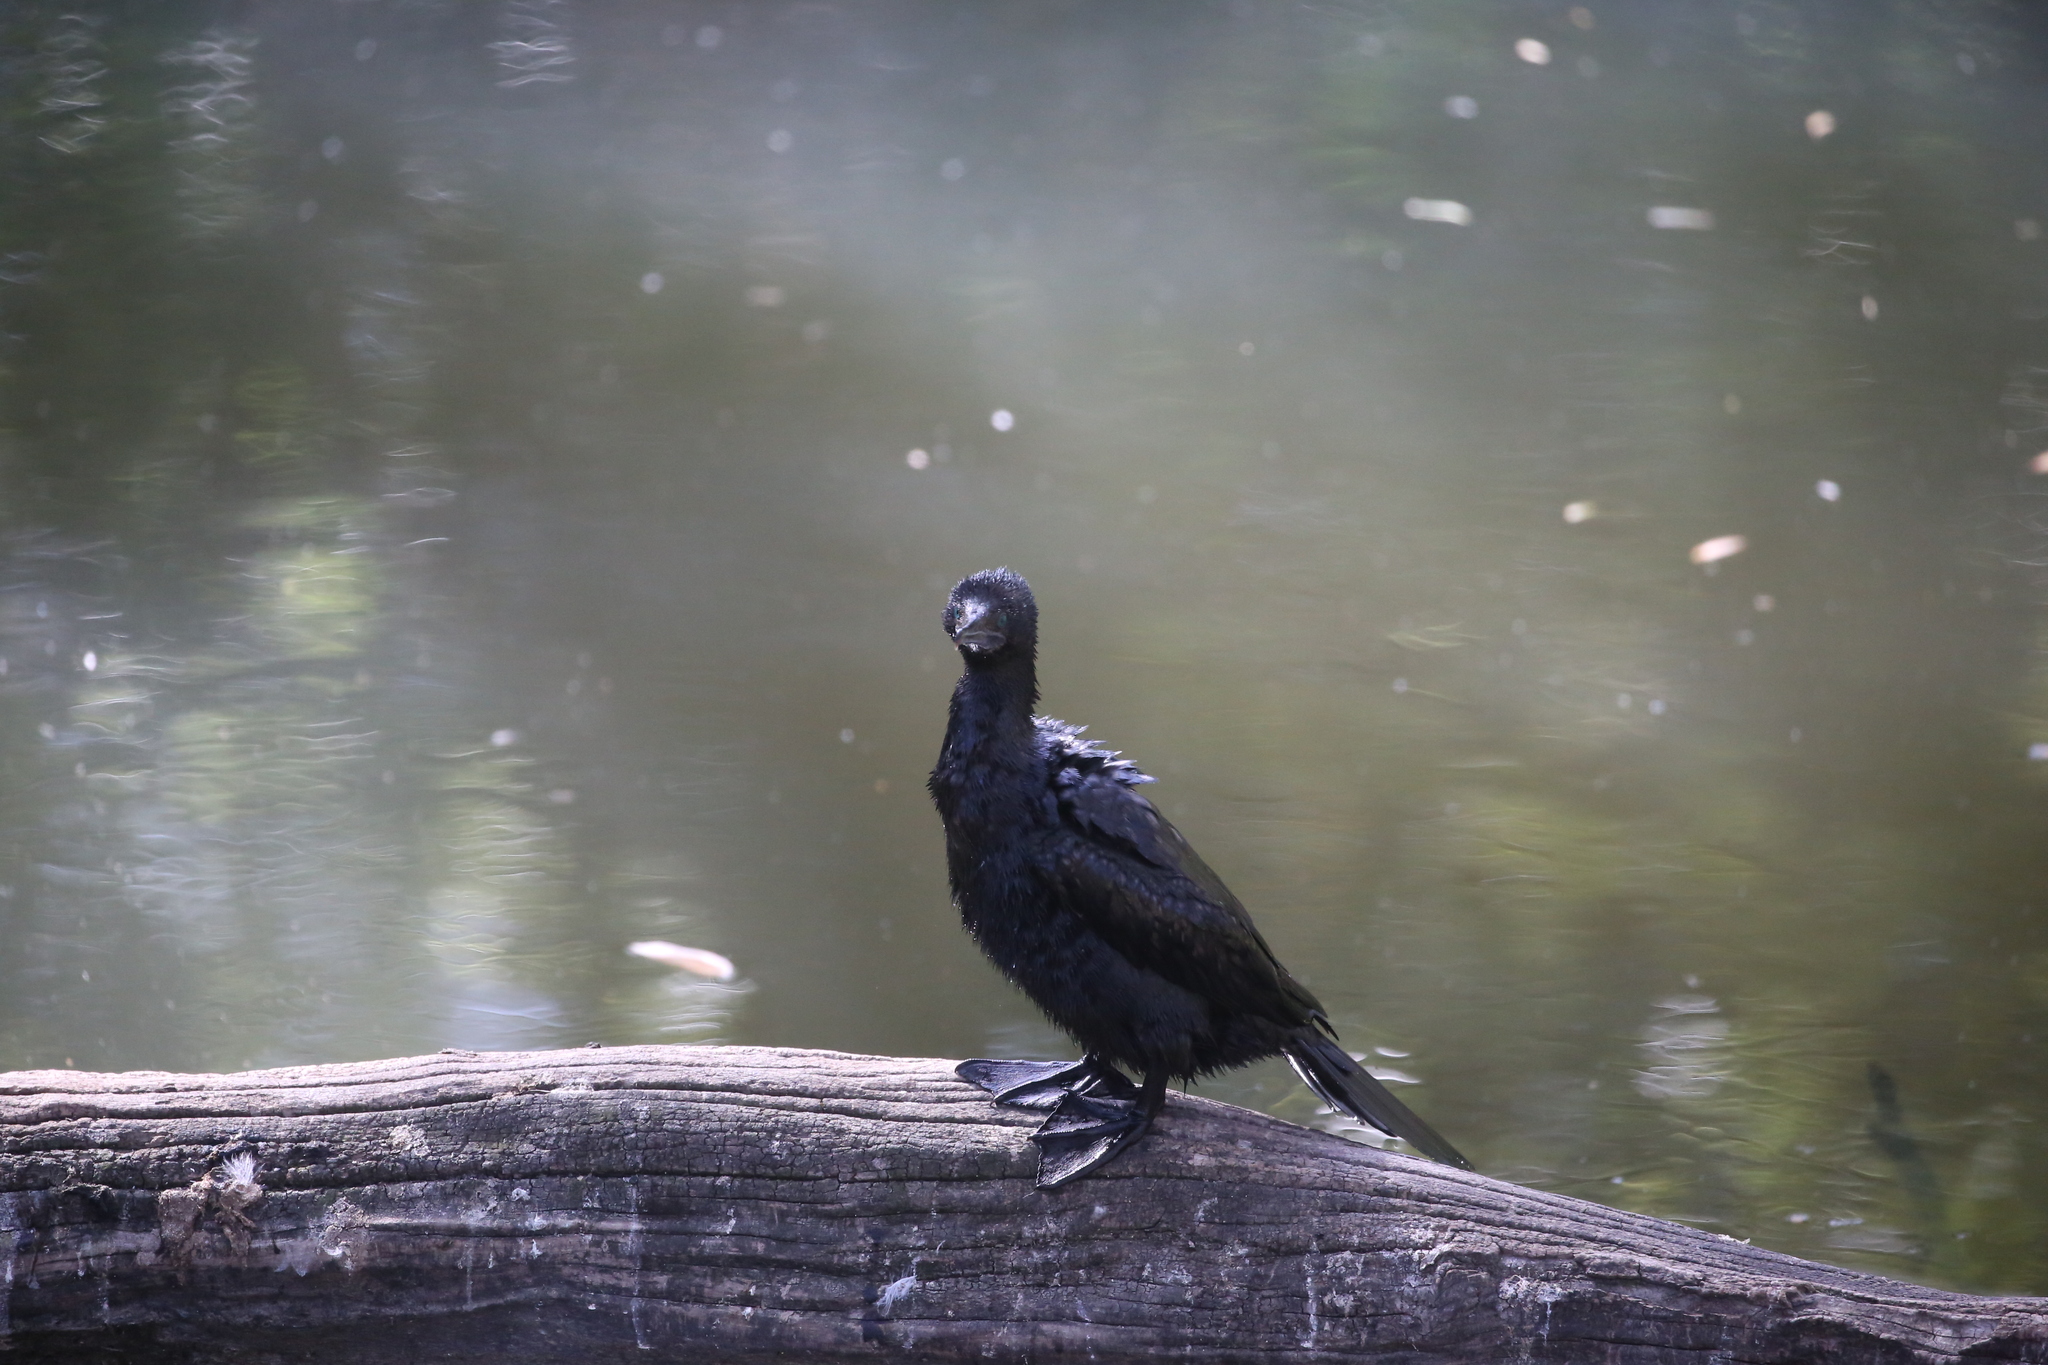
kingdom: Animalia
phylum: Chordata
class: Aves
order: Suliformes
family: Phalacrocoracidae
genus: Phalacrocorax
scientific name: Phalacrocorax sulcirostris
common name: Little black cormorant
